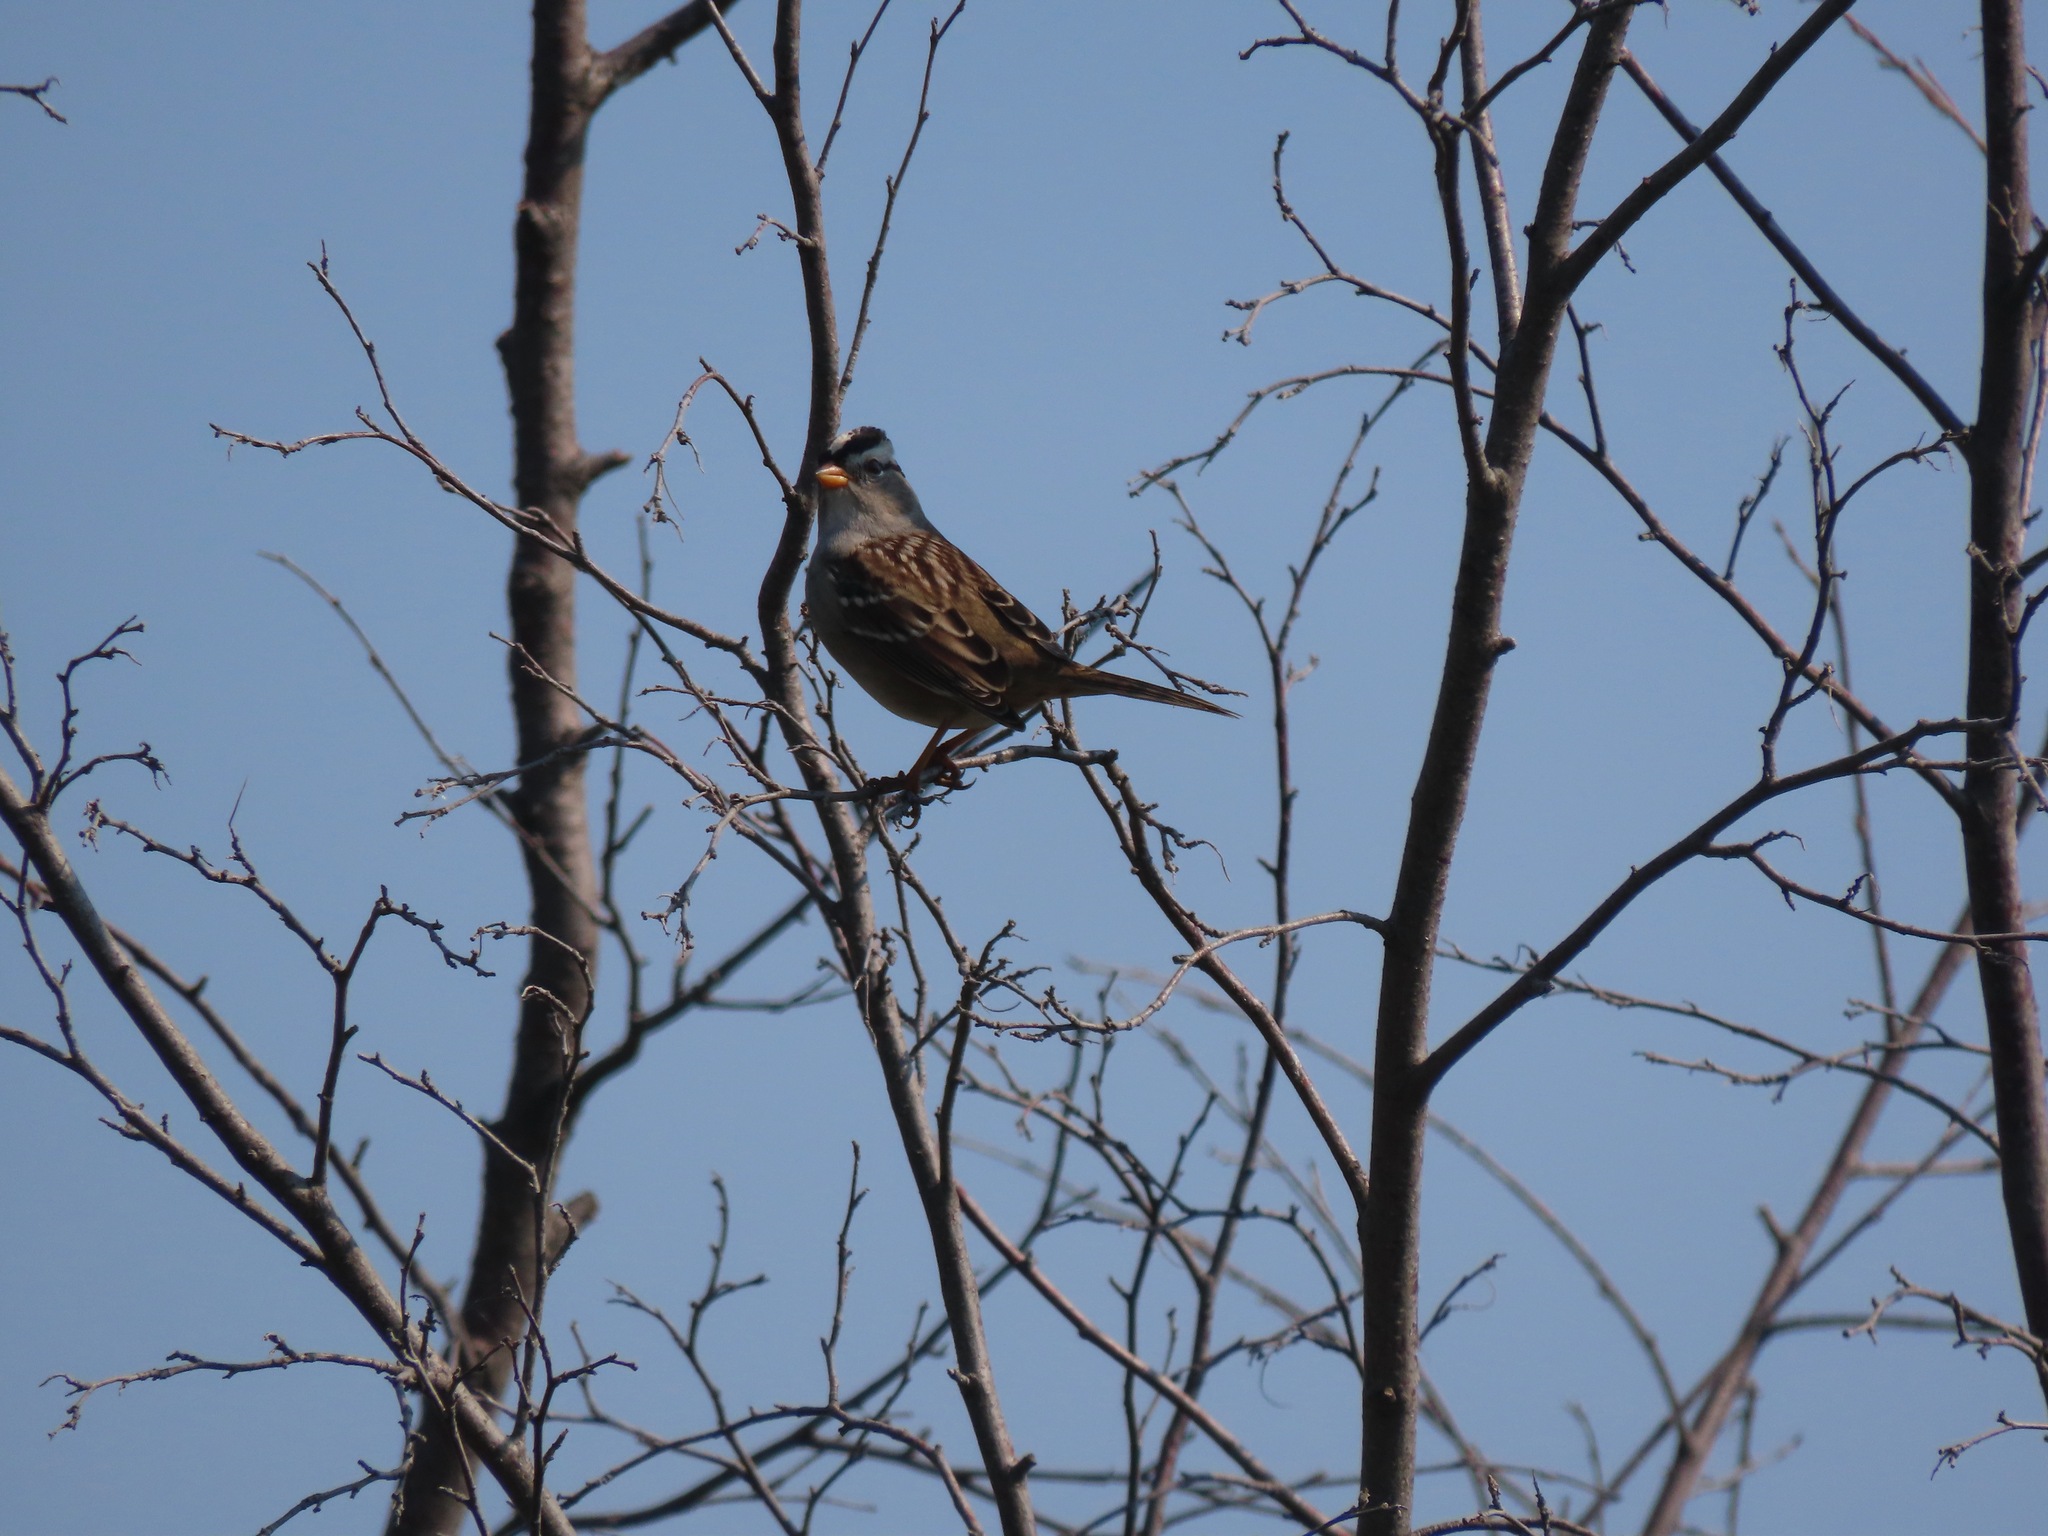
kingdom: Animalia
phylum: Chordata
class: Aves
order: Passeriformes
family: Passerellidae
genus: Zonotrichia
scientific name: Zonotrichia leucophrys
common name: White-crowned sparrow
